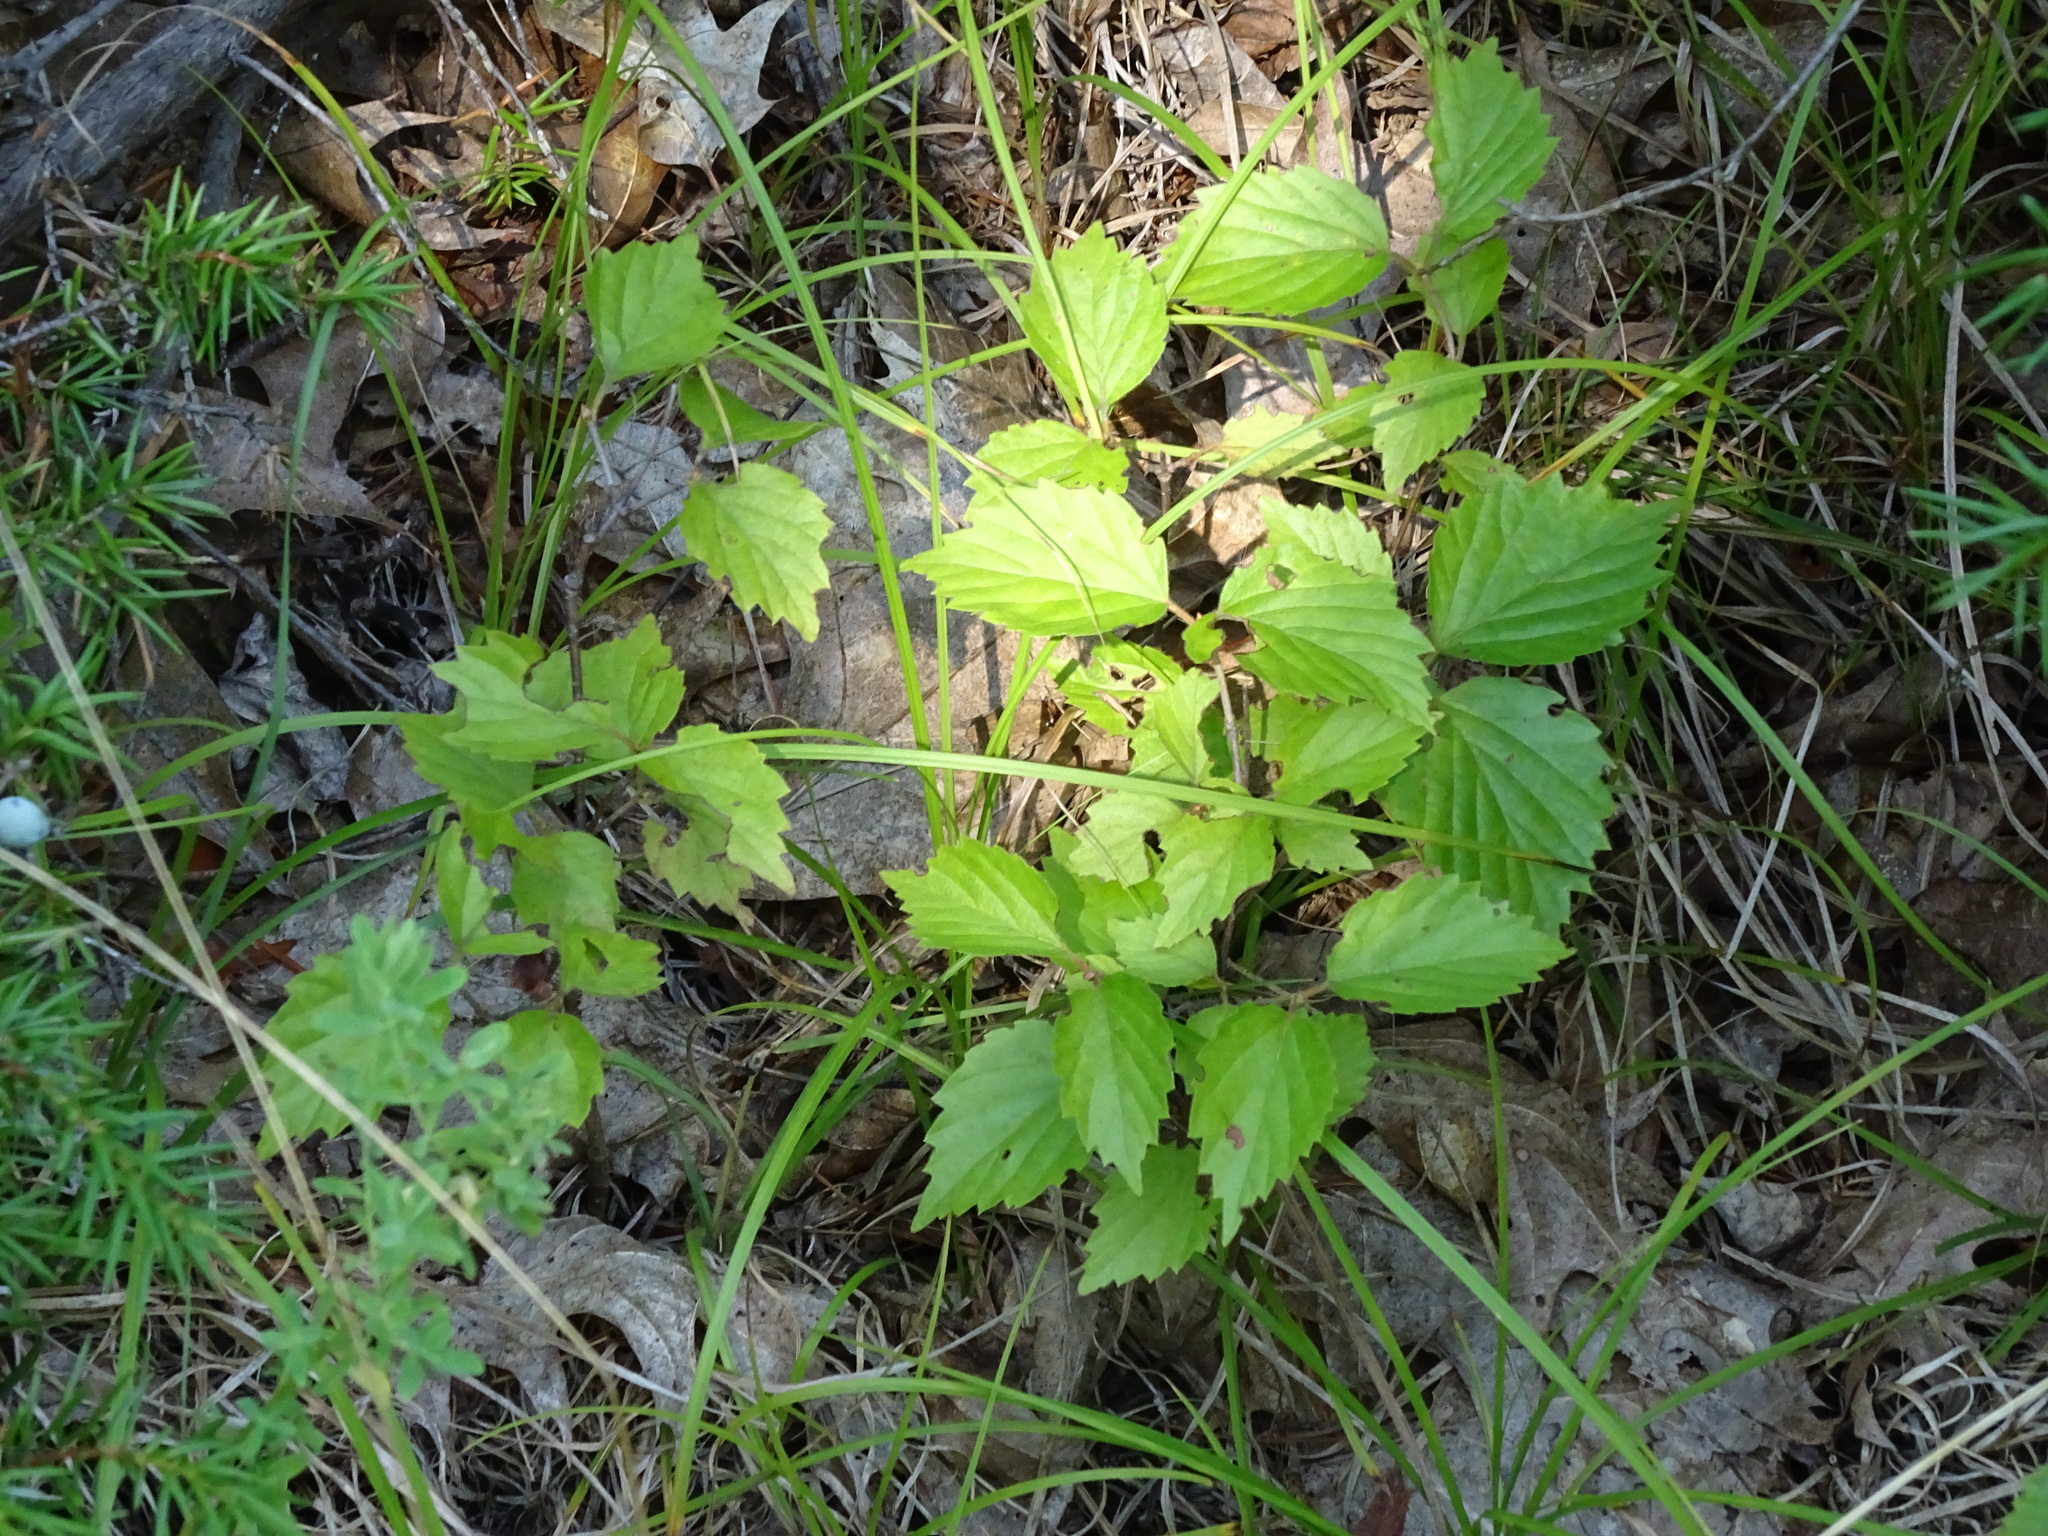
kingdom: Plantae
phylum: Tracheophyta
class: Magnoliopsida
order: Dipsacales
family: Viburnaceae
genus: Viburnum
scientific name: Viburnum rafinesqueanum
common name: Downy arrow-wood
